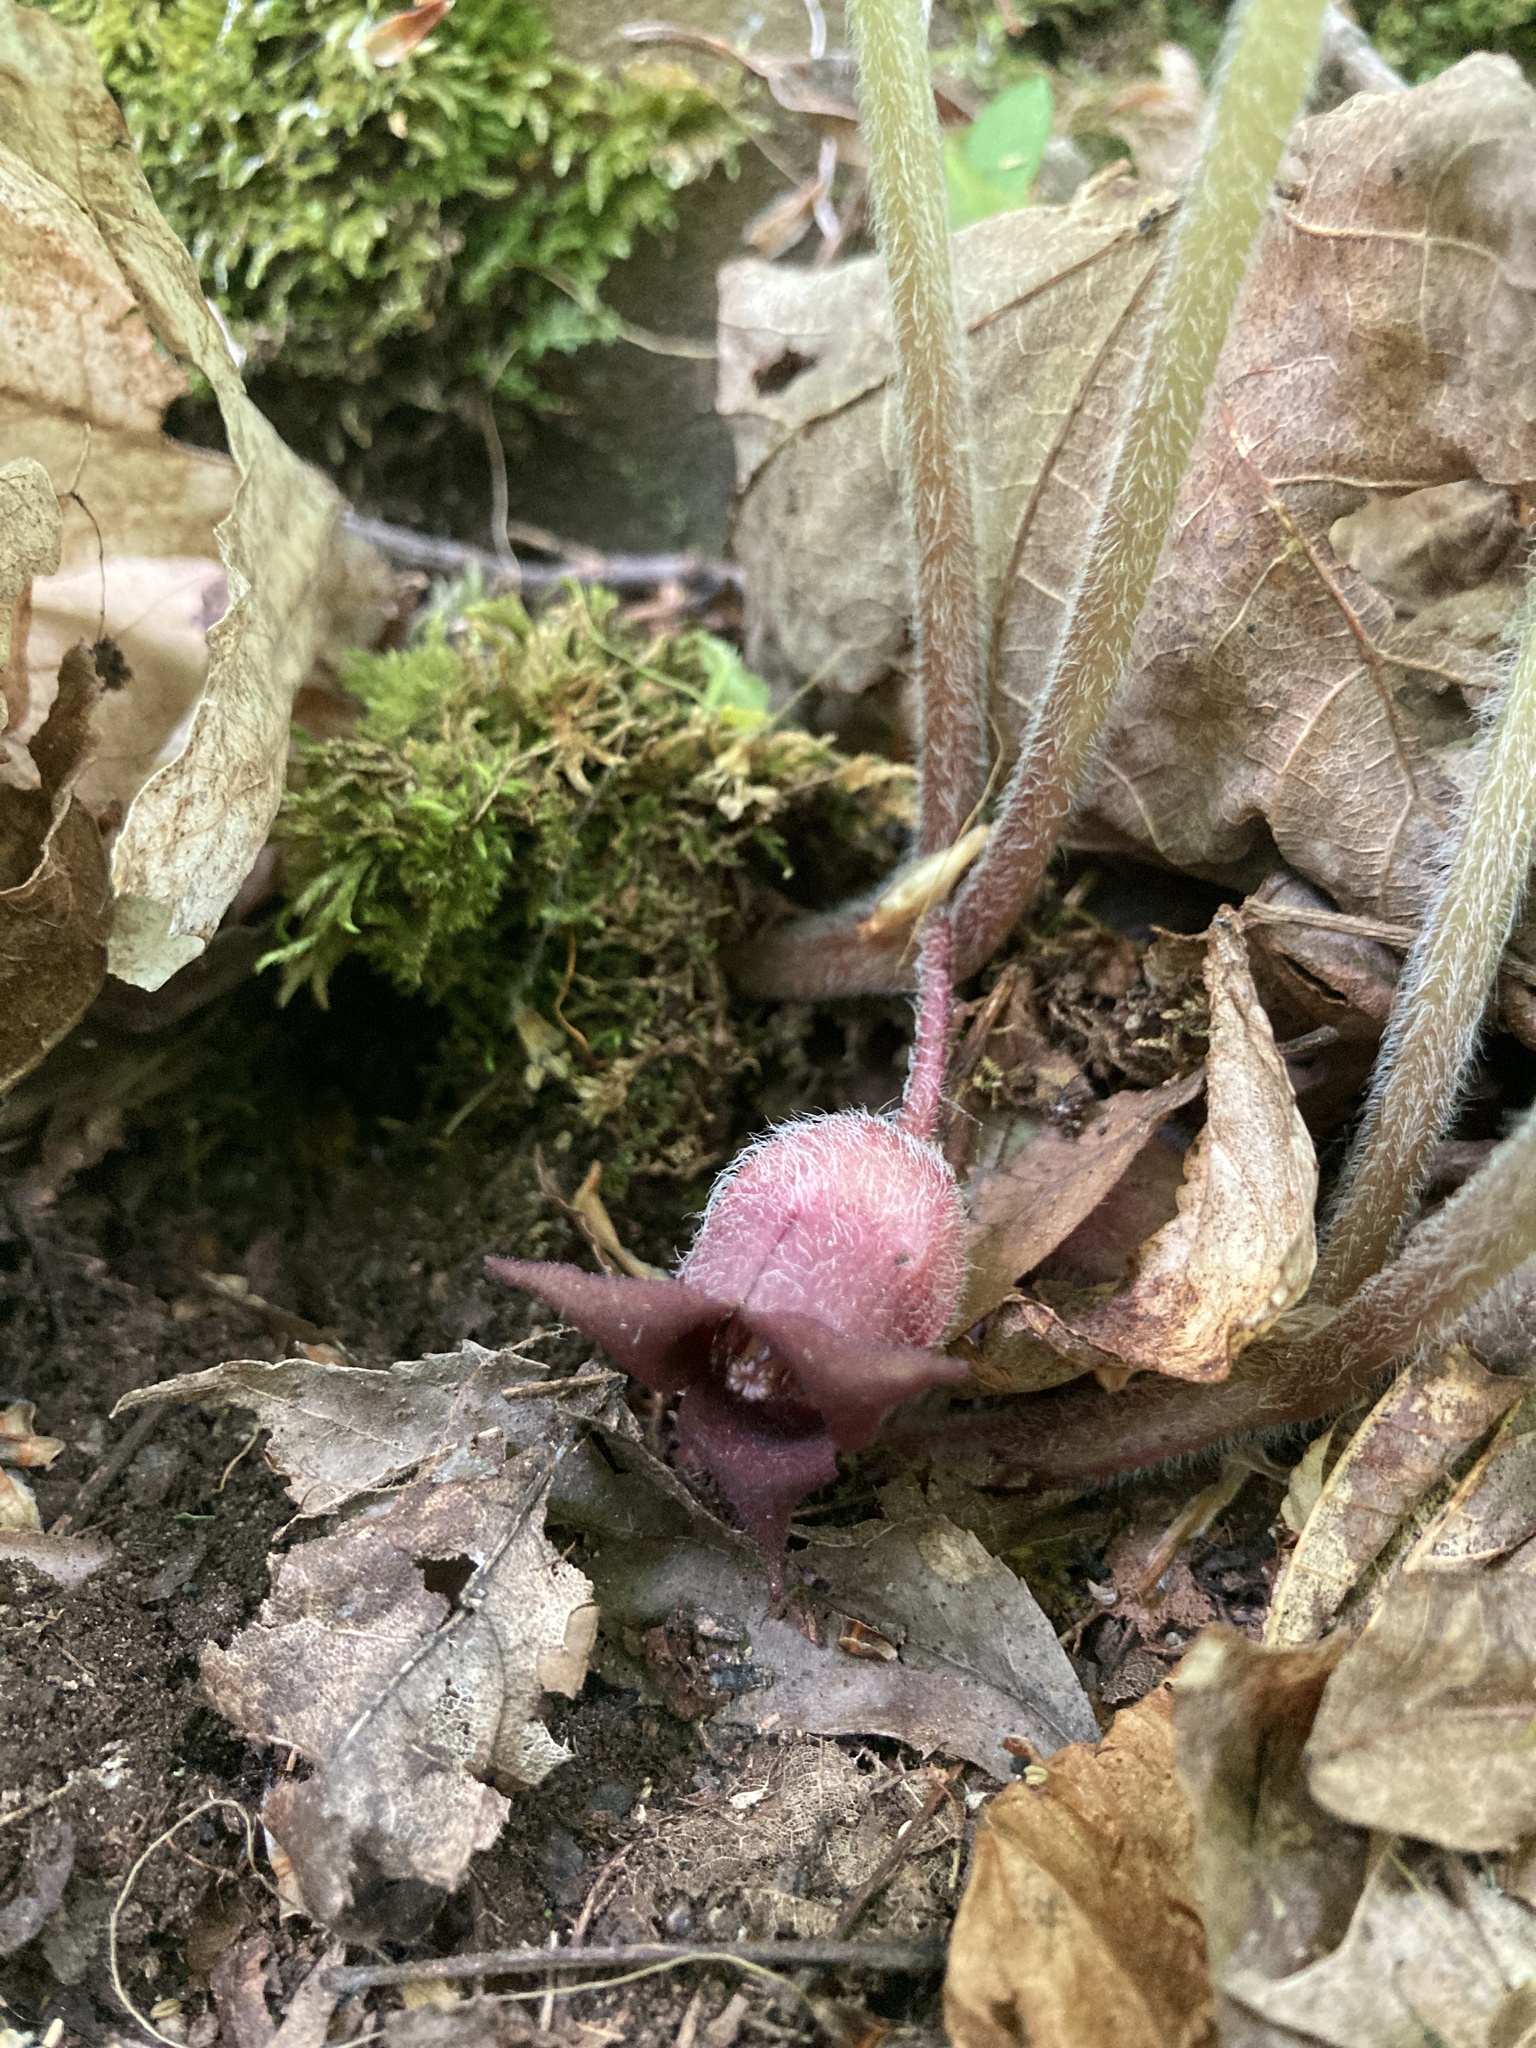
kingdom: Plantae
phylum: Tracheophyta
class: Magnoliopsida
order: Piperales
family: Aristolochiaceae
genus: Asarum
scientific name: Asarum canadense
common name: Wild ginger
